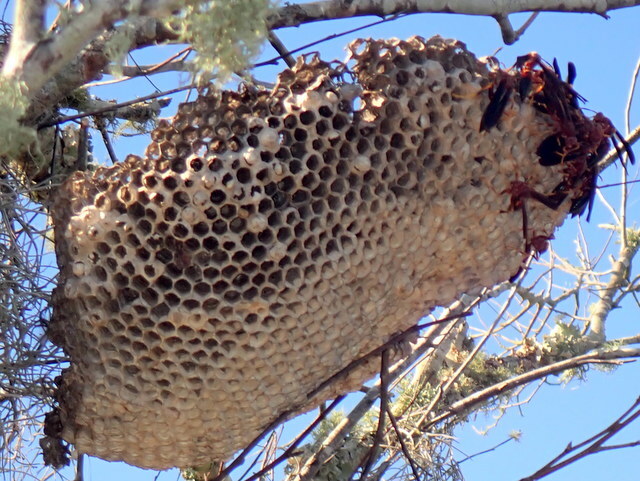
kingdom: Animalia
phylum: Arthropoda
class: Insecta
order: Hymenoptera
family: Eumenidae
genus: Polistes
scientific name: Polistes annularis
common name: Ringed paper wasp
